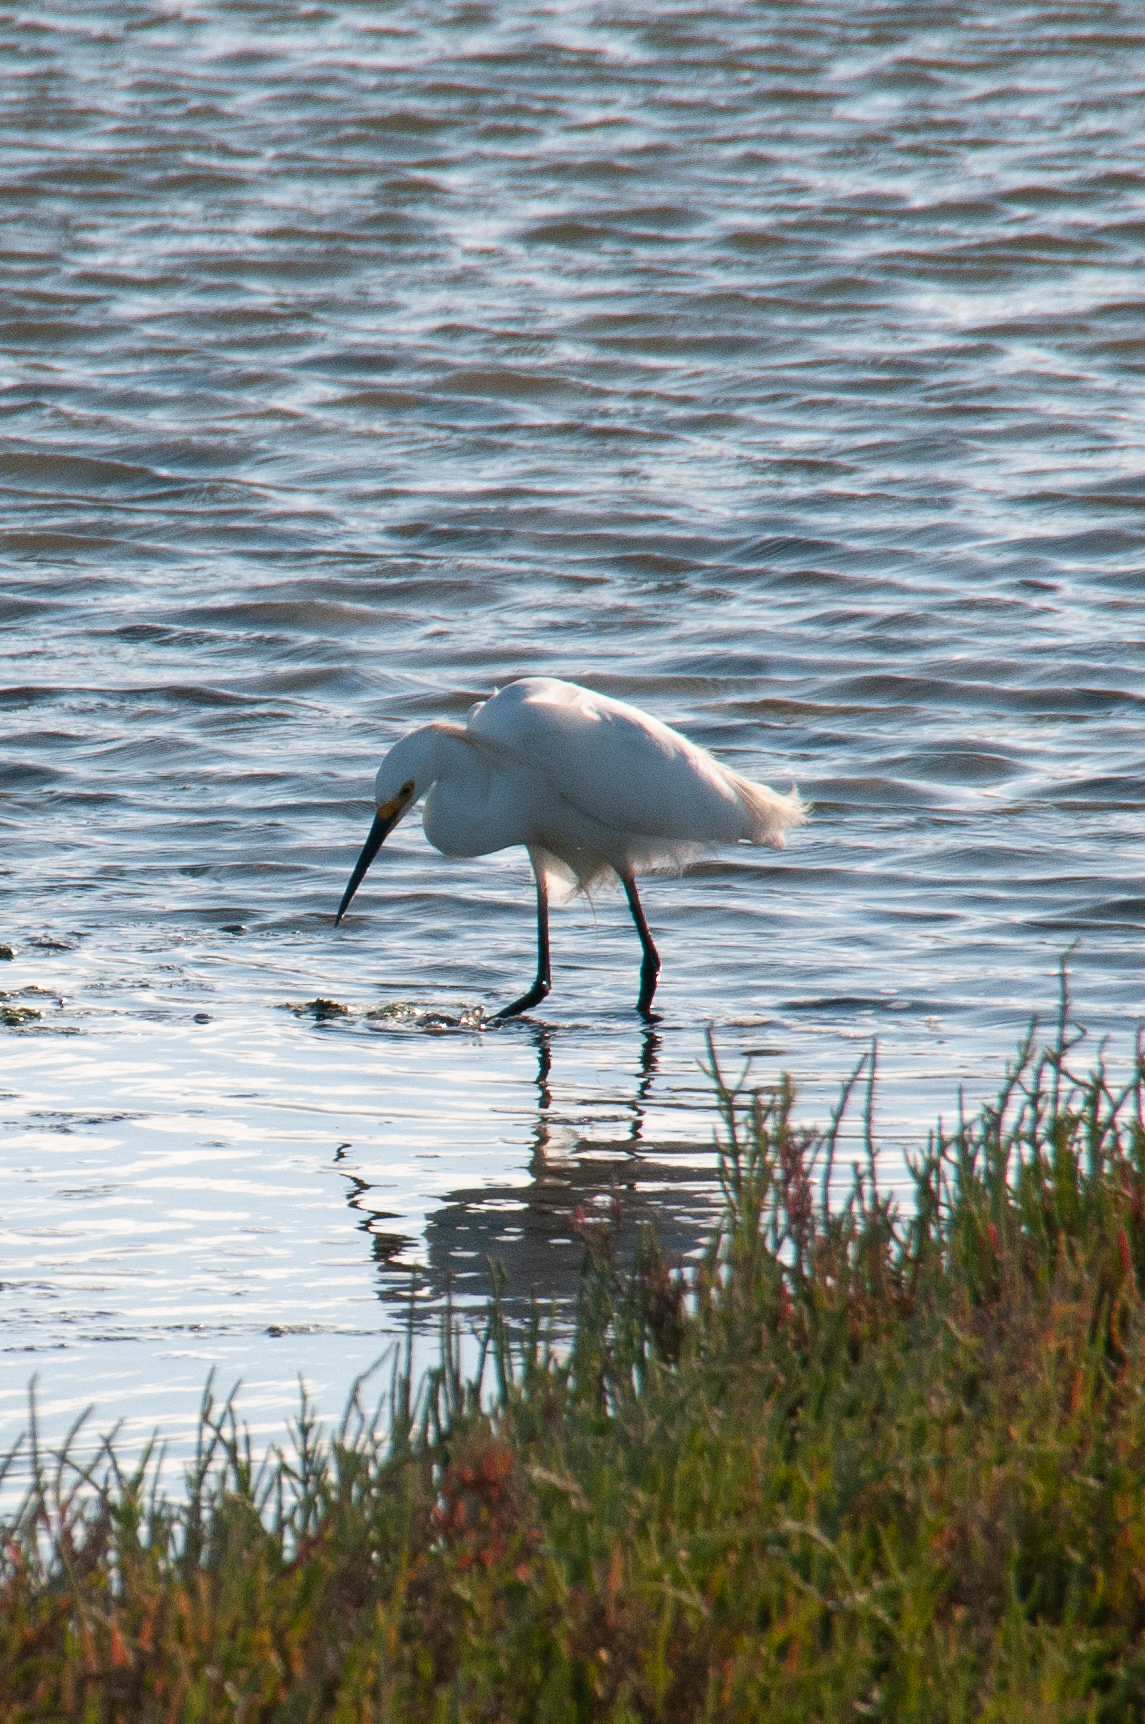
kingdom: Animalia
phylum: Chordata
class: Aves
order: Pelecaniformes
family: Ardeidae
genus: Egretta
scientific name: Egretta thula
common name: Snowy egret
